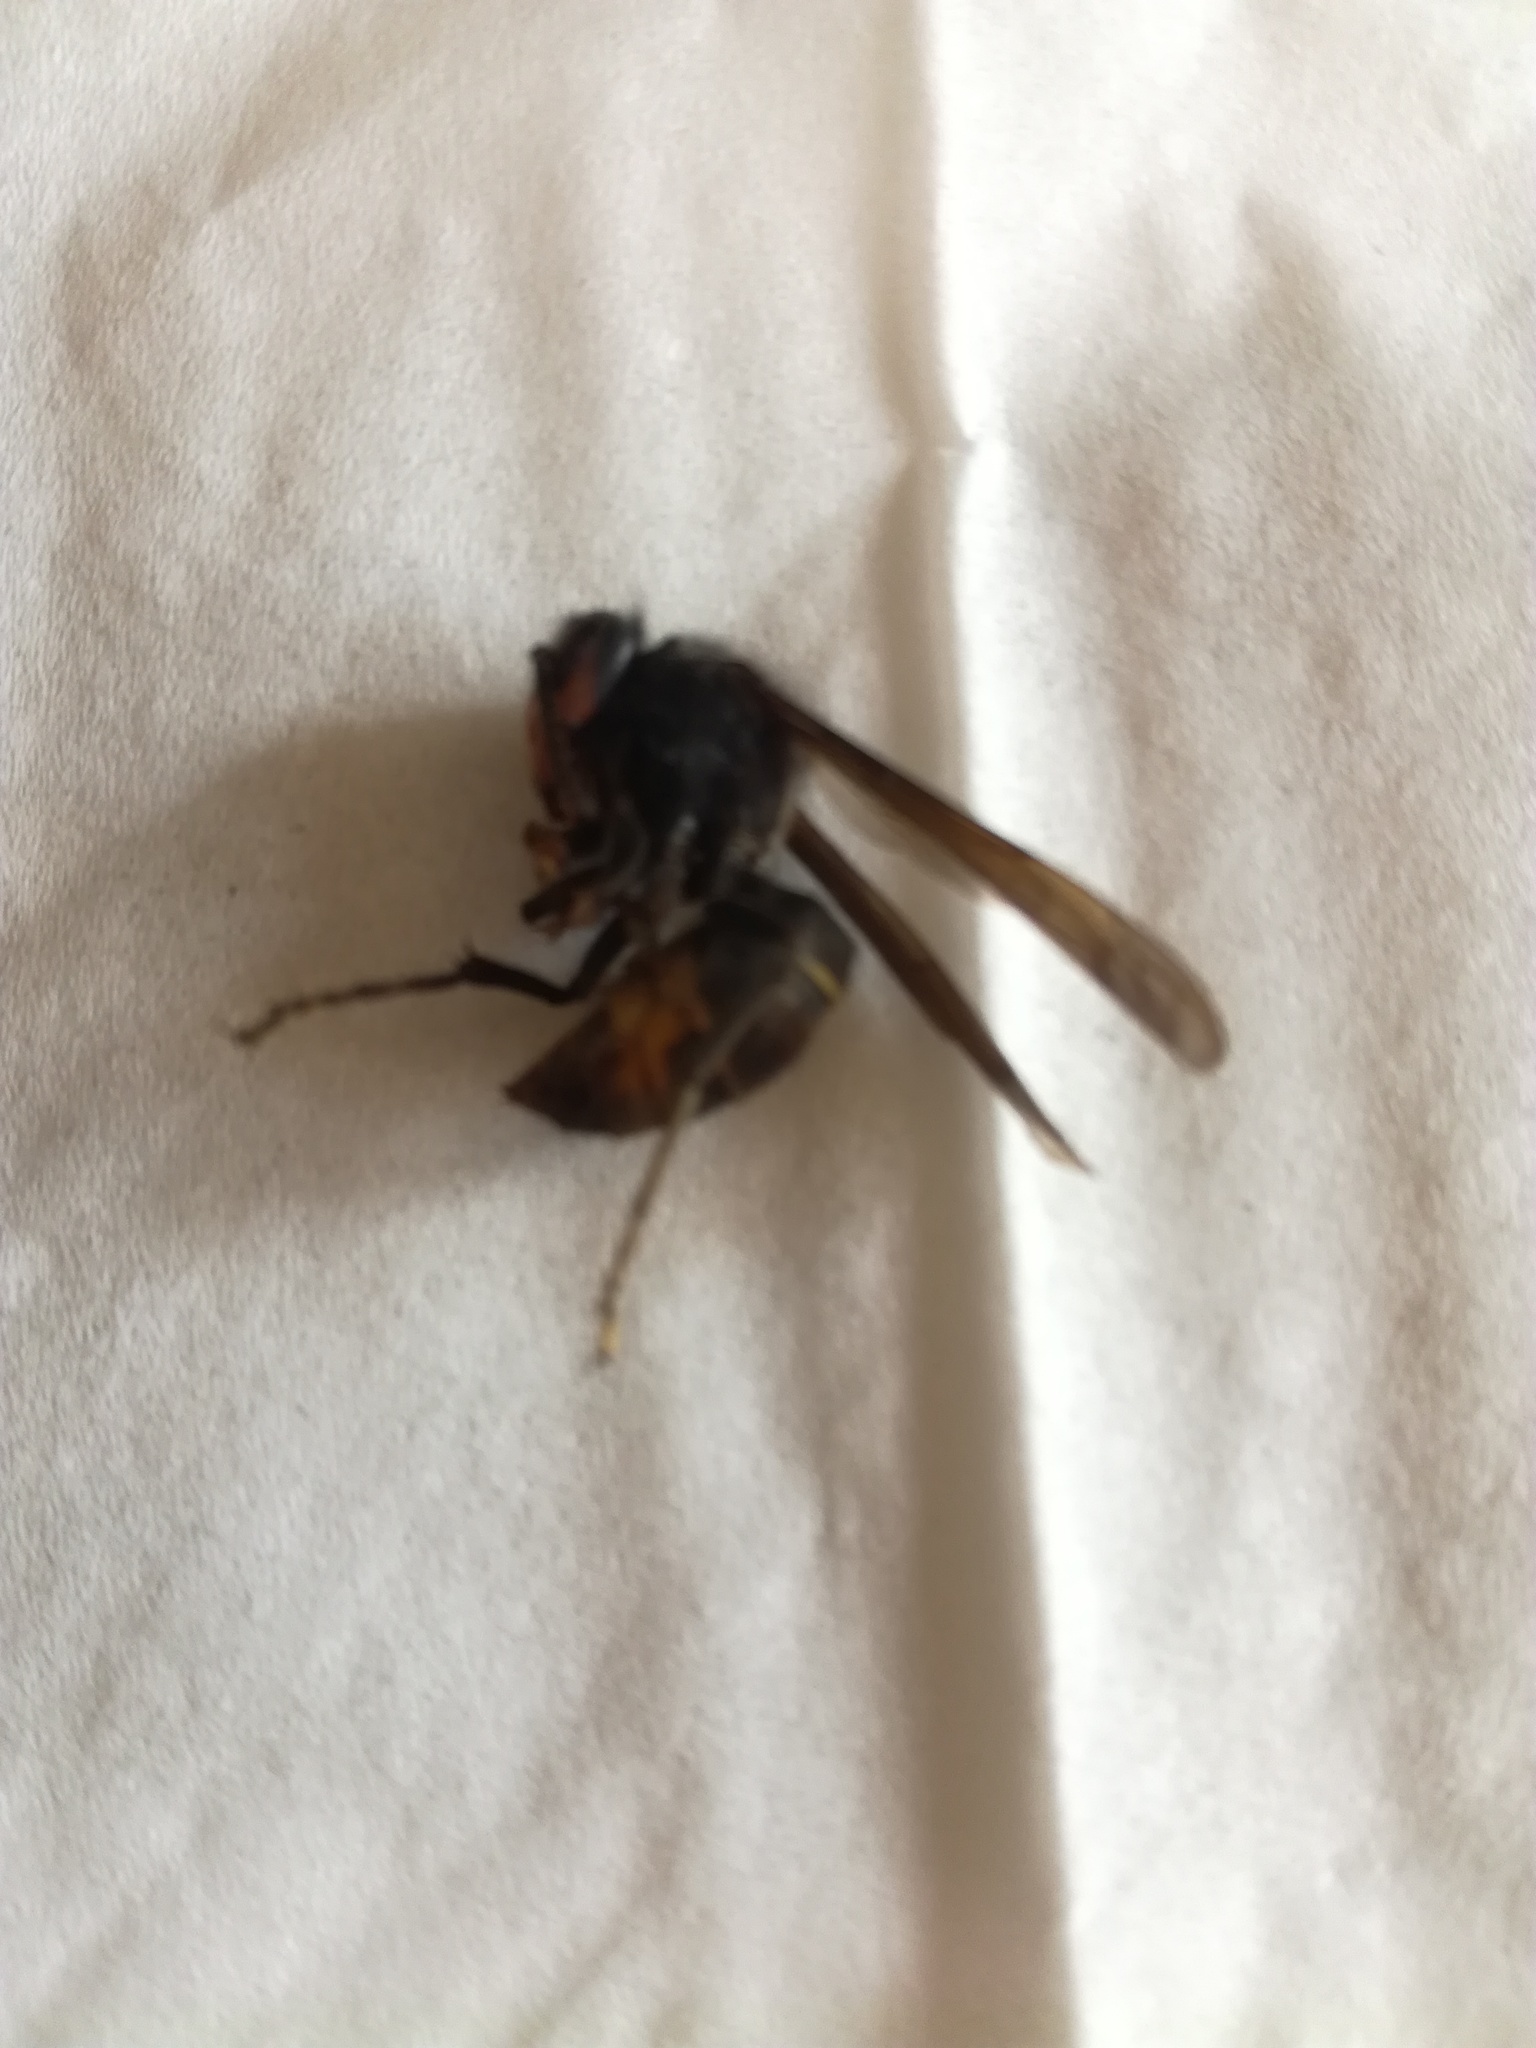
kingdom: Animalia
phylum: Arthropoda
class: Insecta
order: Hymenoptera
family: Vespidae
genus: Vespa
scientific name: Vespa velutina
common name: Asian hornet
